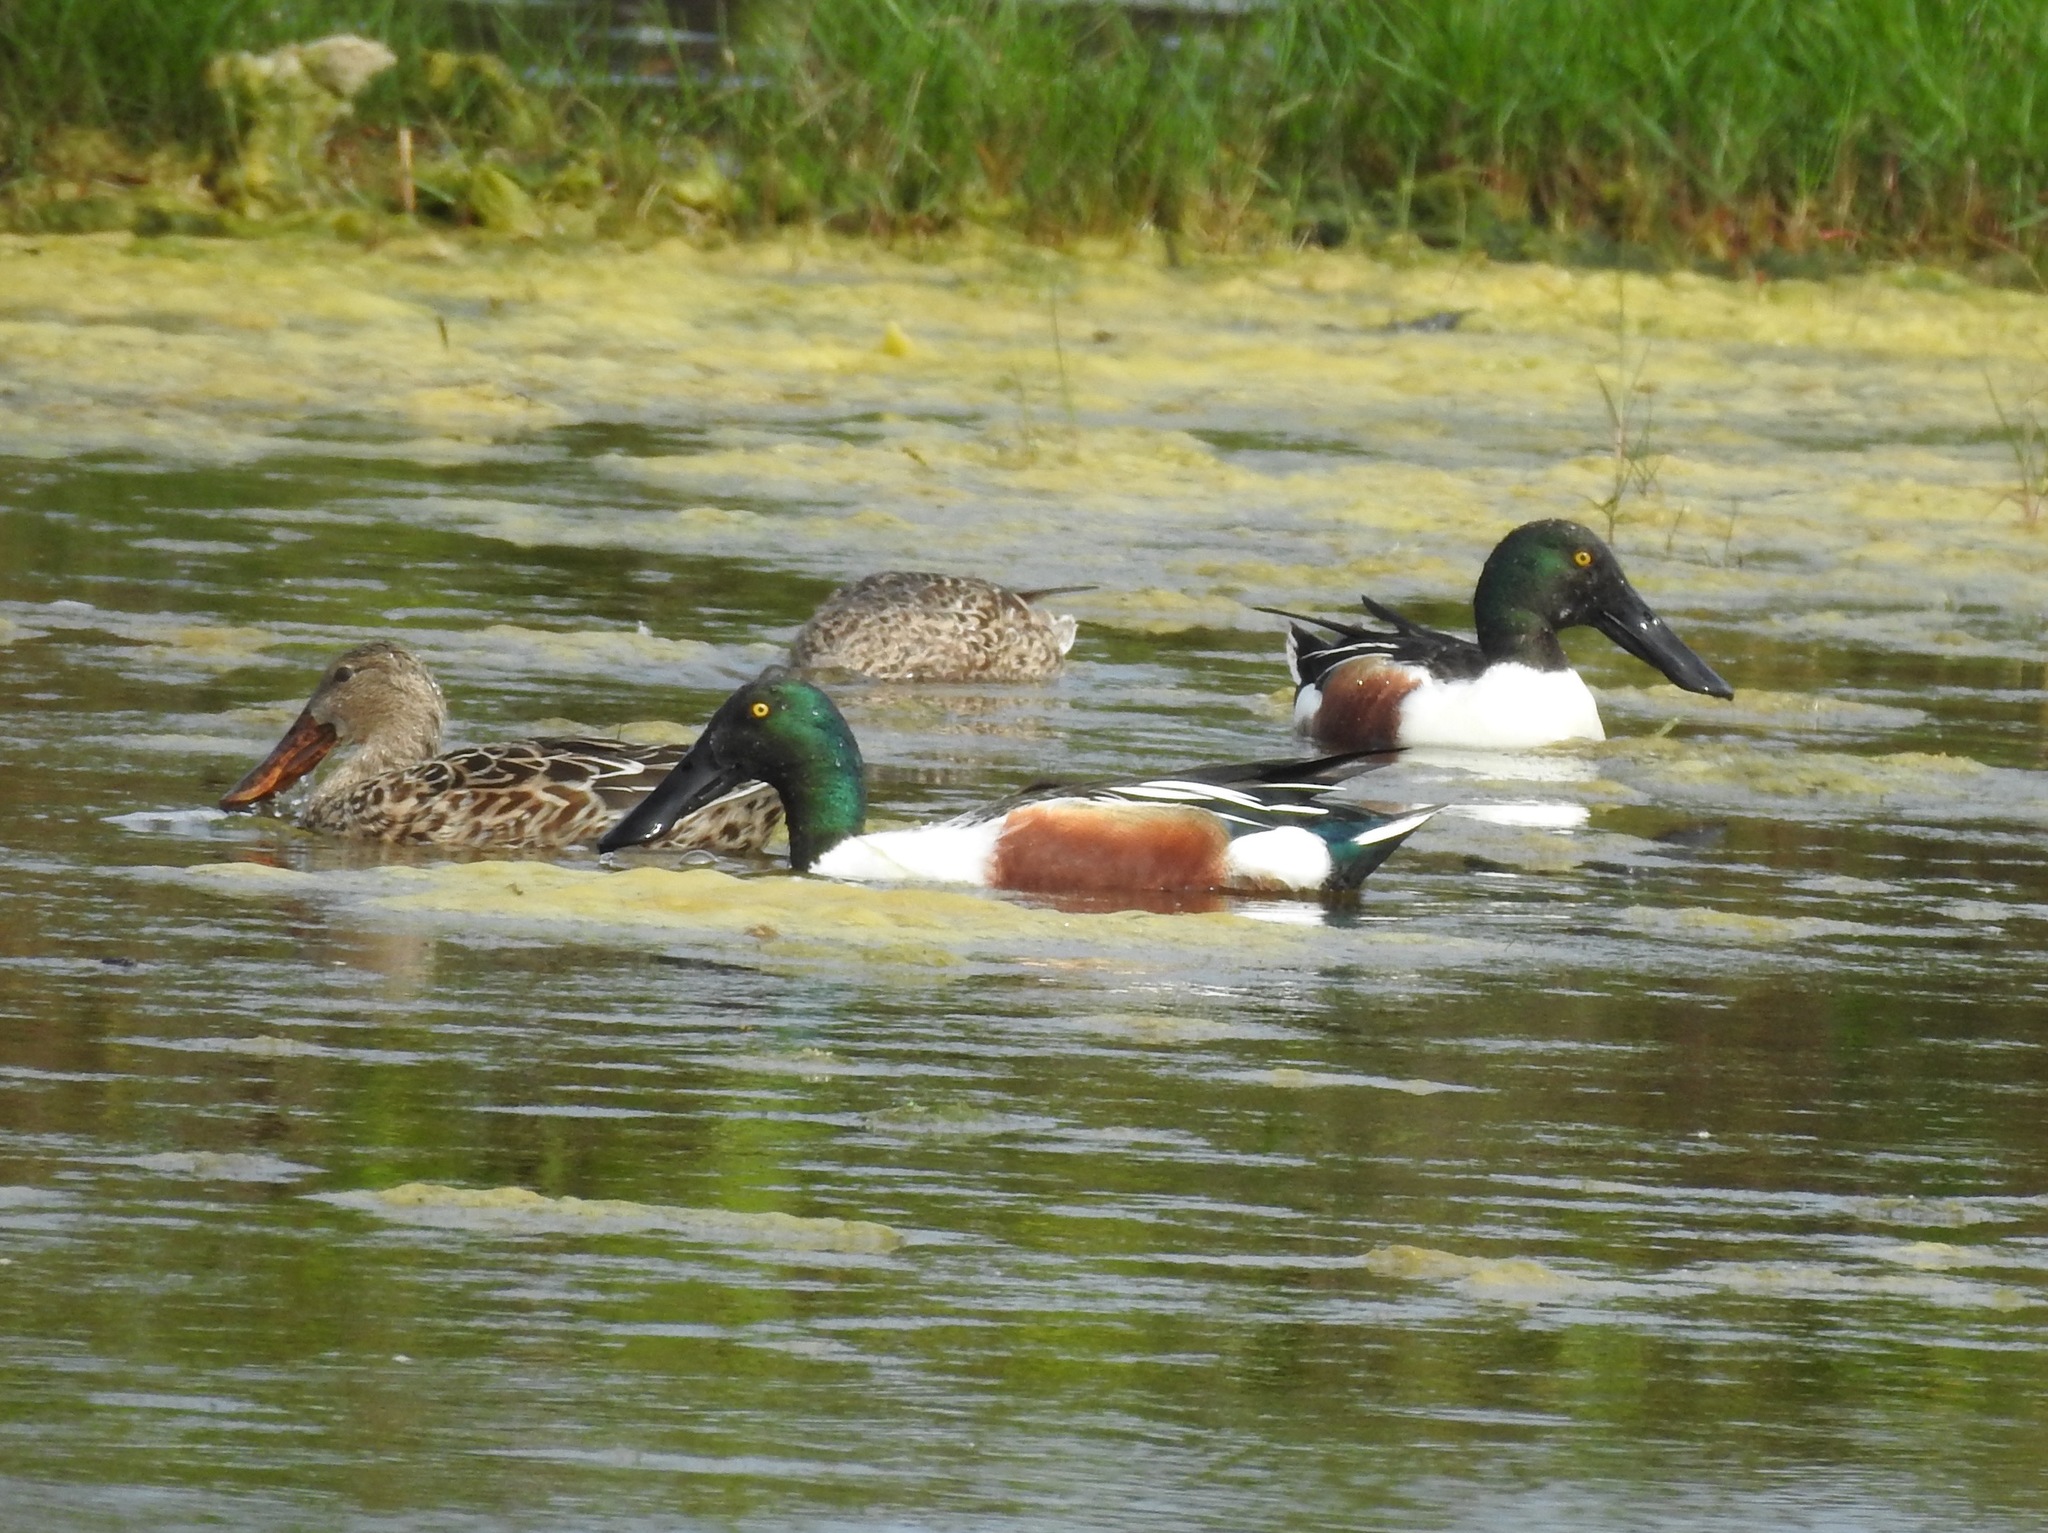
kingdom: Animalia
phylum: Chordata
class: Aves
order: Anseriformes
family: Anatidae
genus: Spatula
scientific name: Spatula clypeata
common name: Northern shoveler
